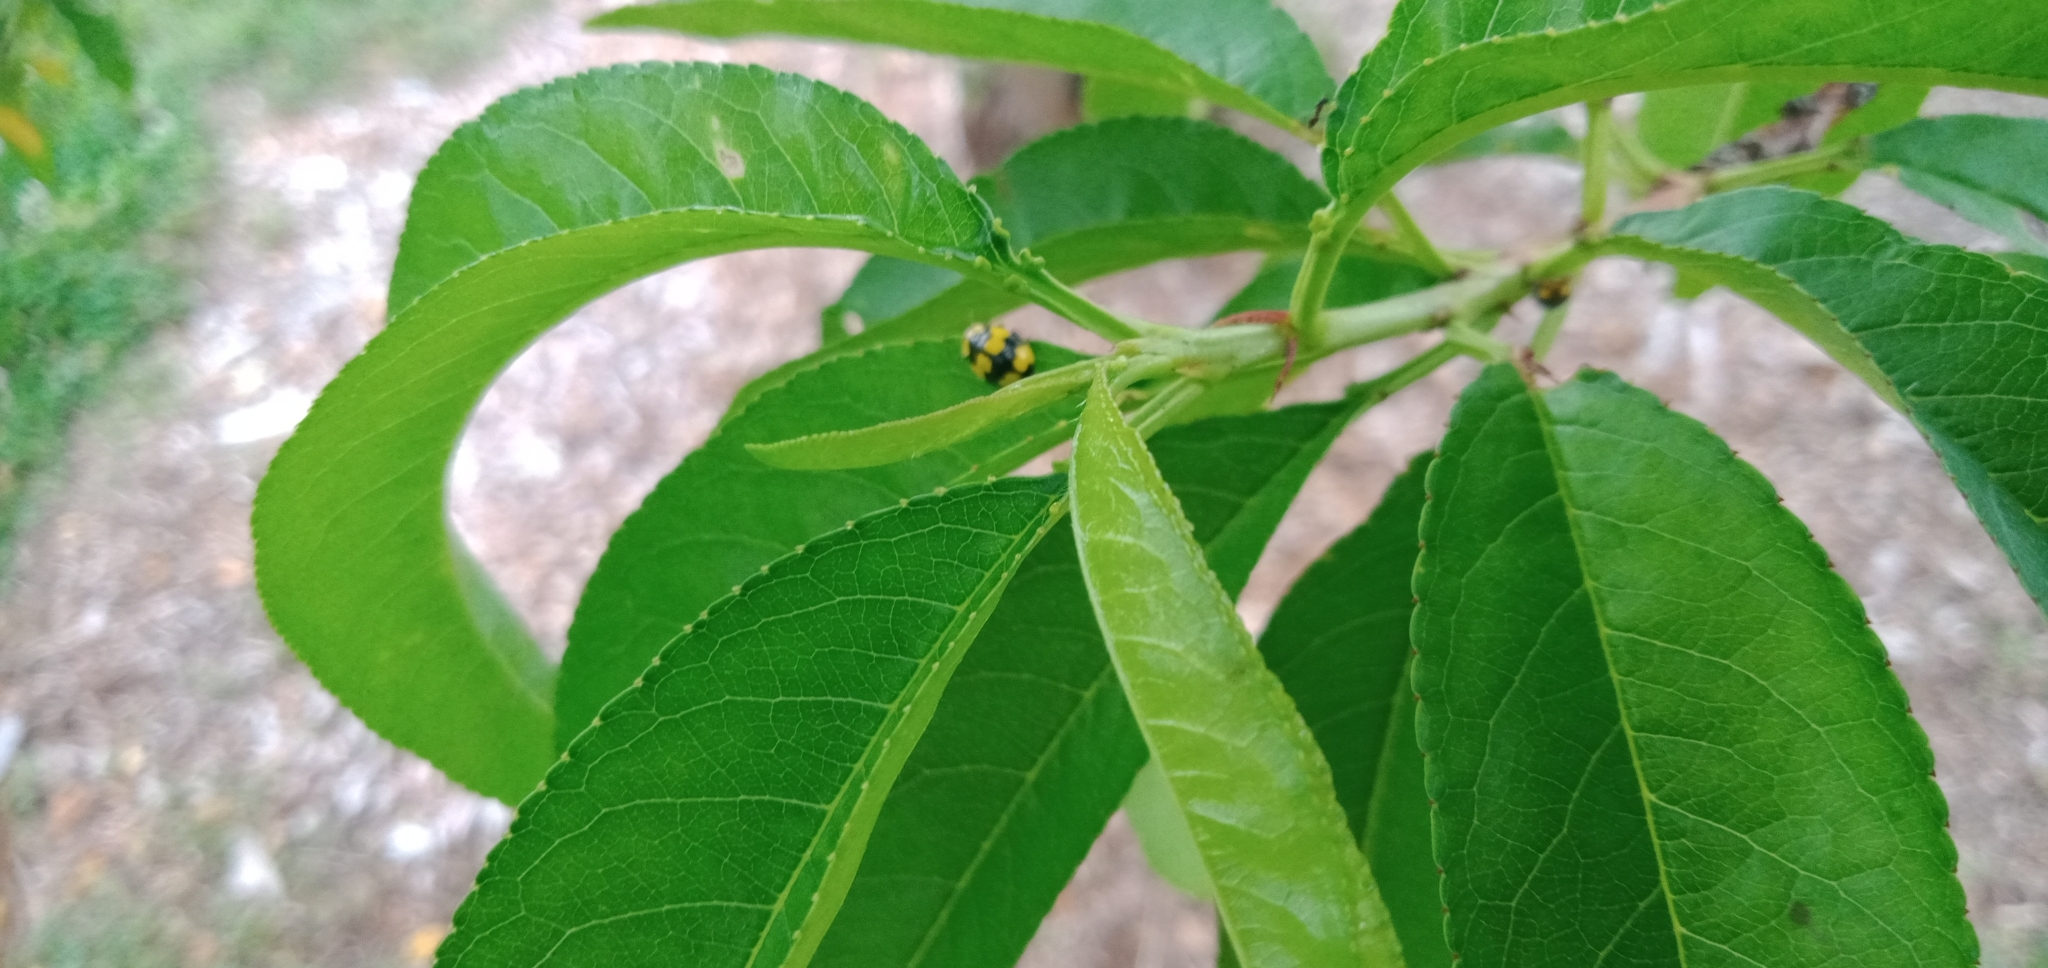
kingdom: Animalia
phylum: Arthropoda
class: Insecta
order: Coleoptera
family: Coccinellidae
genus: Illeis
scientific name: Illeis galbula
